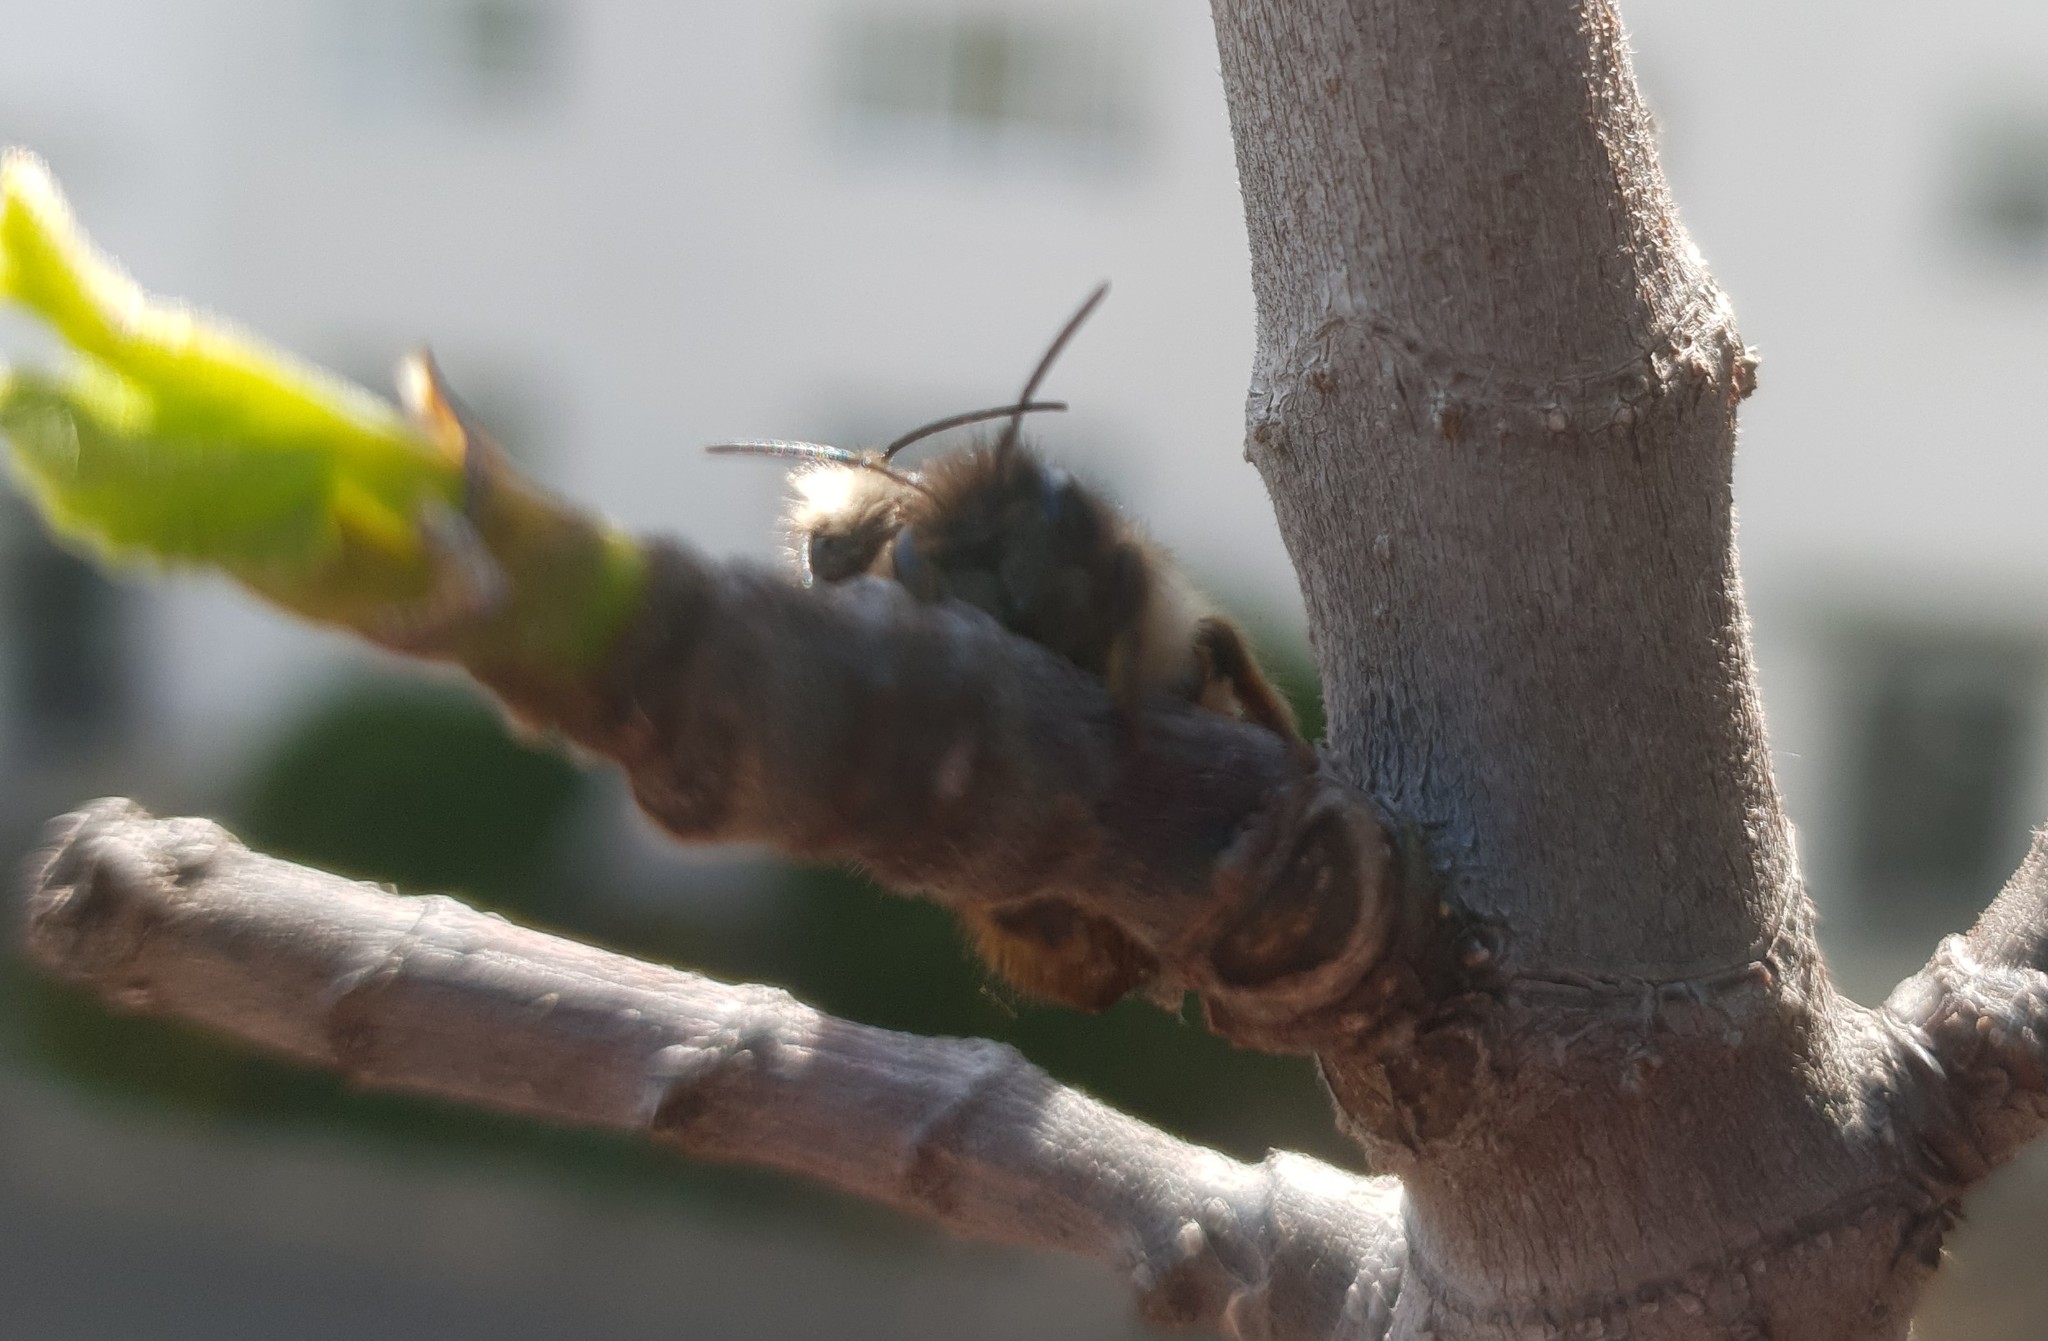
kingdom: Animalia
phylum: Arthropoda
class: Insecta
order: Hymenoptera
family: Megachilidae
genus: Osmia
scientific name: Osmia bicornis
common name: Red mason bee
